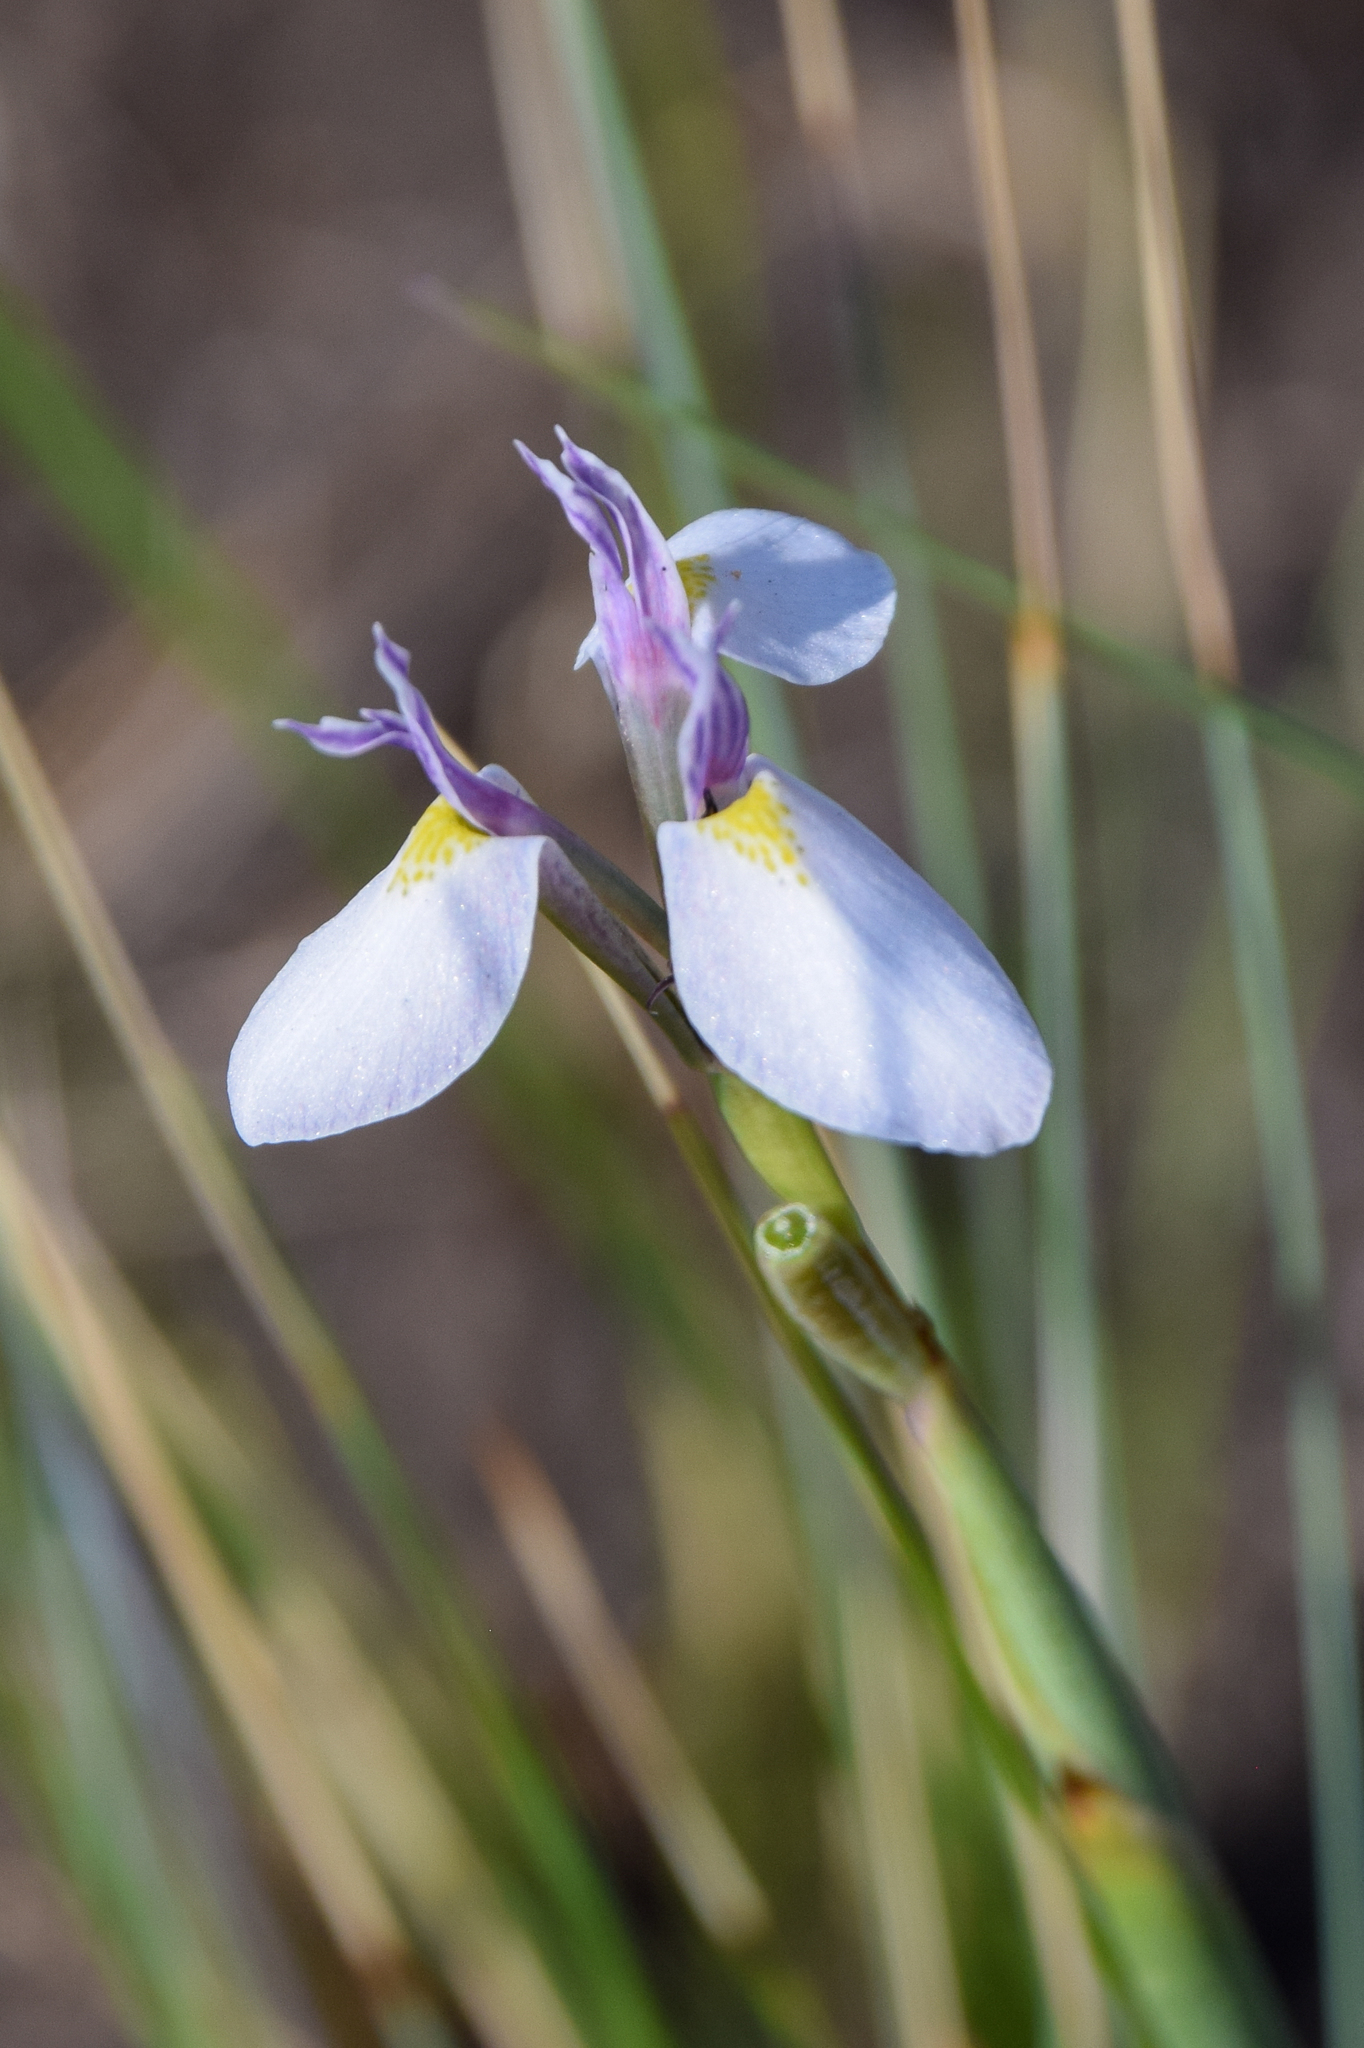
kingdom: Plantae
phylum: Tracheophyta
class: Liliopsida
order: Asparagales
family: Iridaceae
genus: Moraea
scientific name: Moraea modesta
